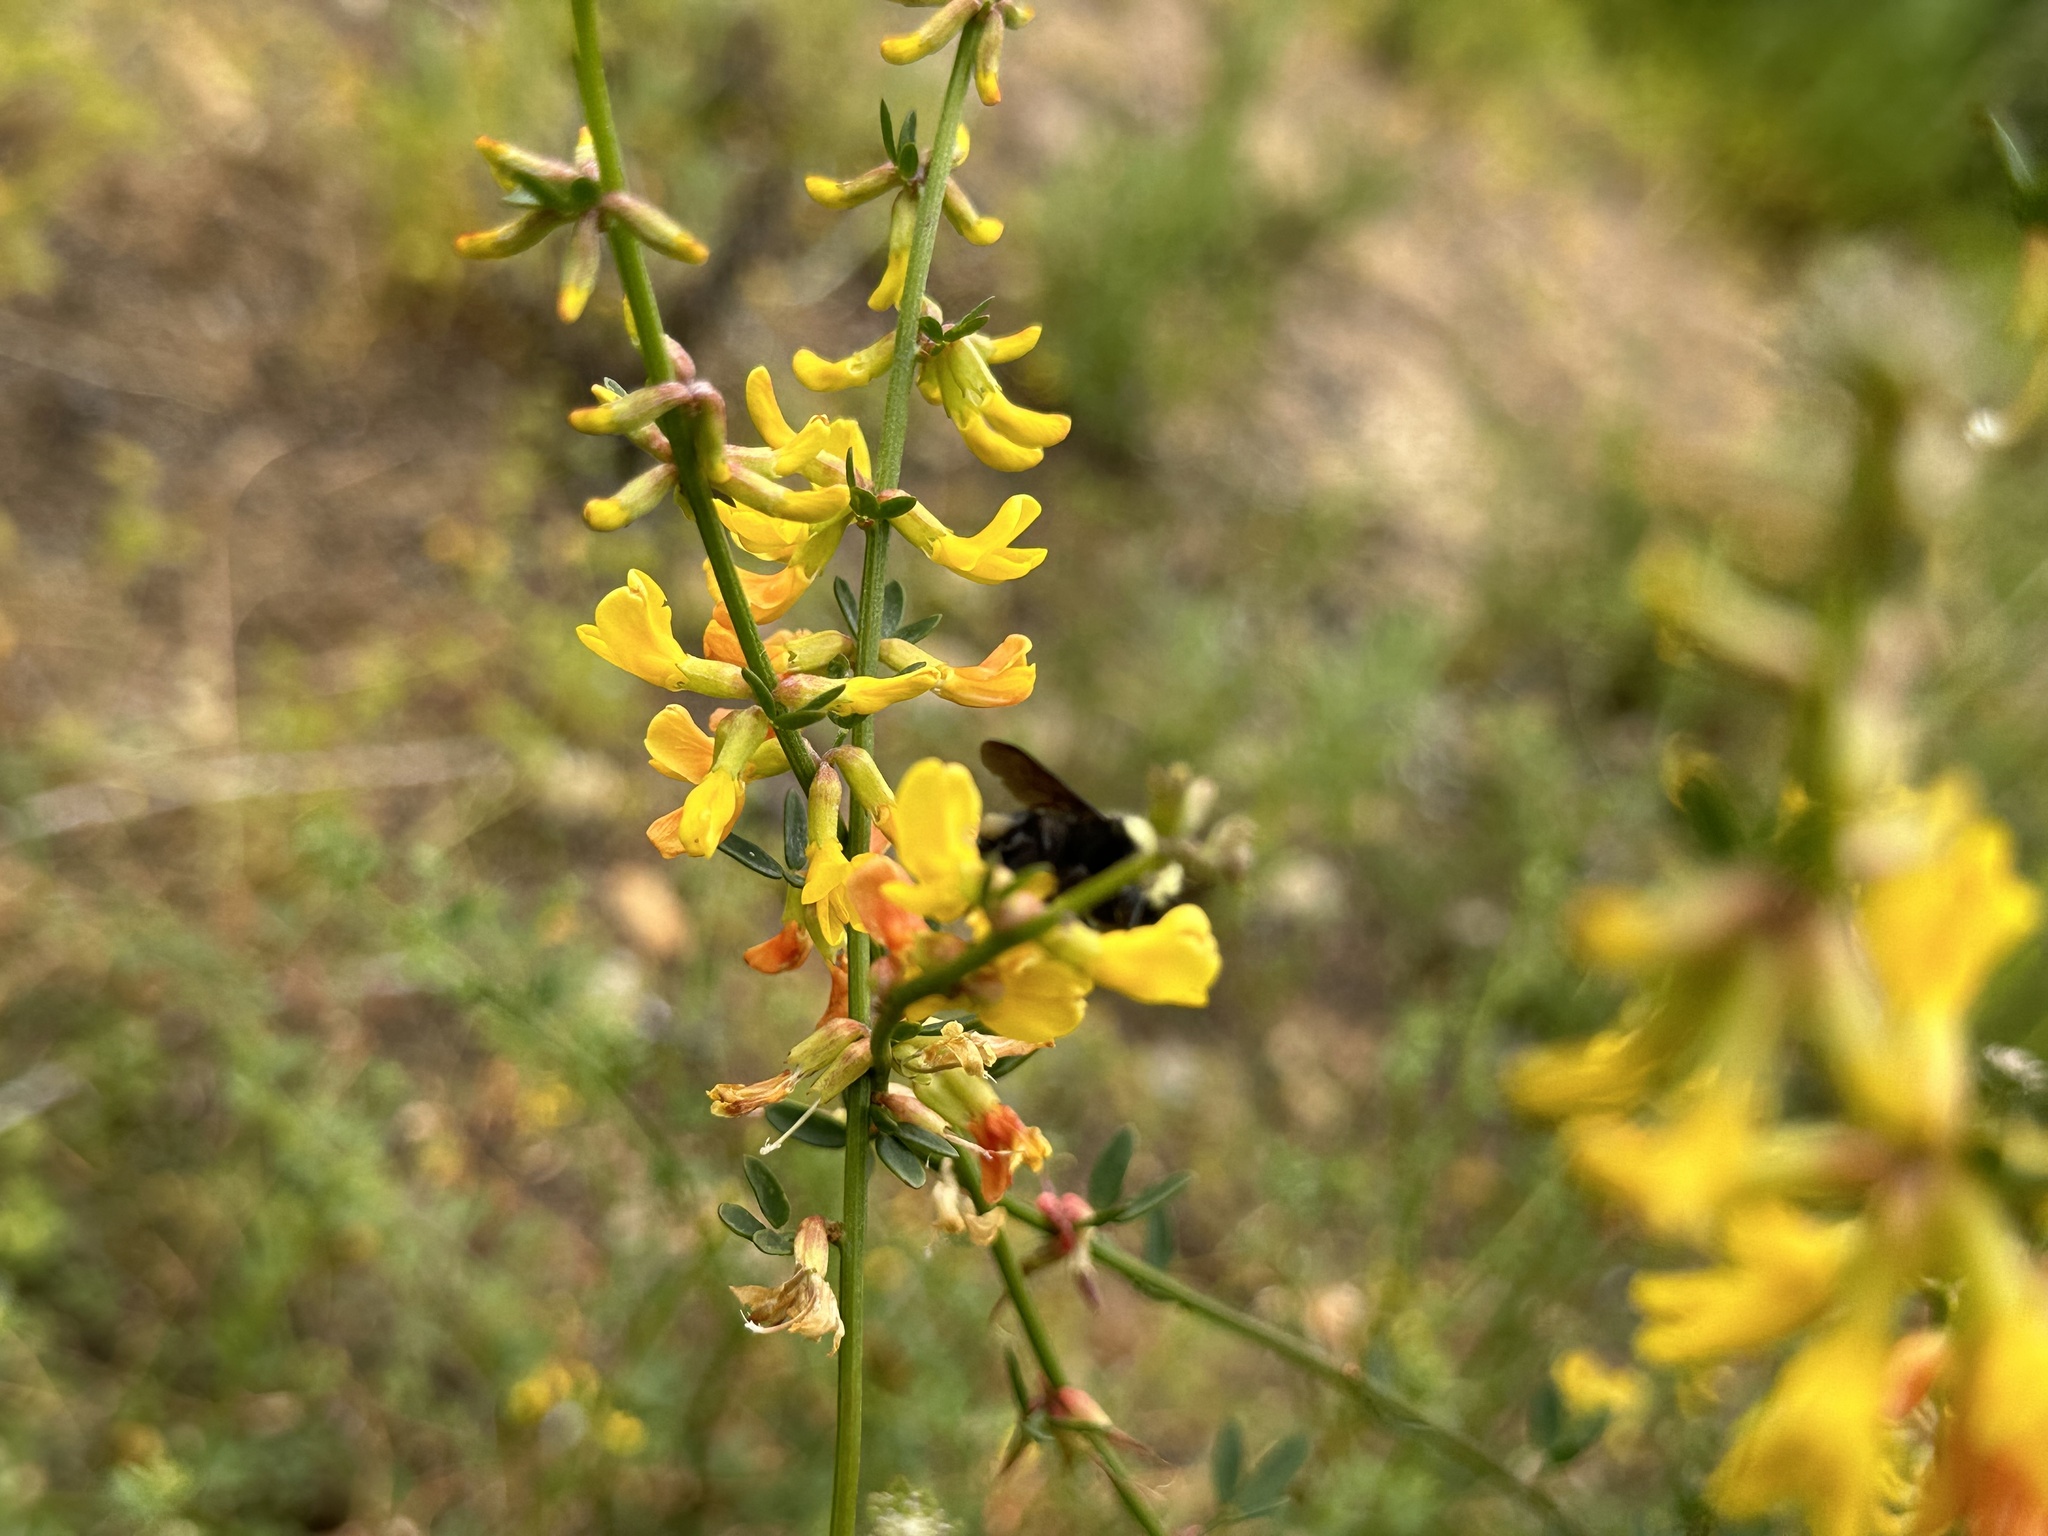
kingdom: Animalia
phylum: Arthropoda
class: Insecta
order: Hymenoptera
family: Apidae
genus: Bombus
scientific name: Bombus vosnesenskii
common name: Vosnesensky bumble bee
